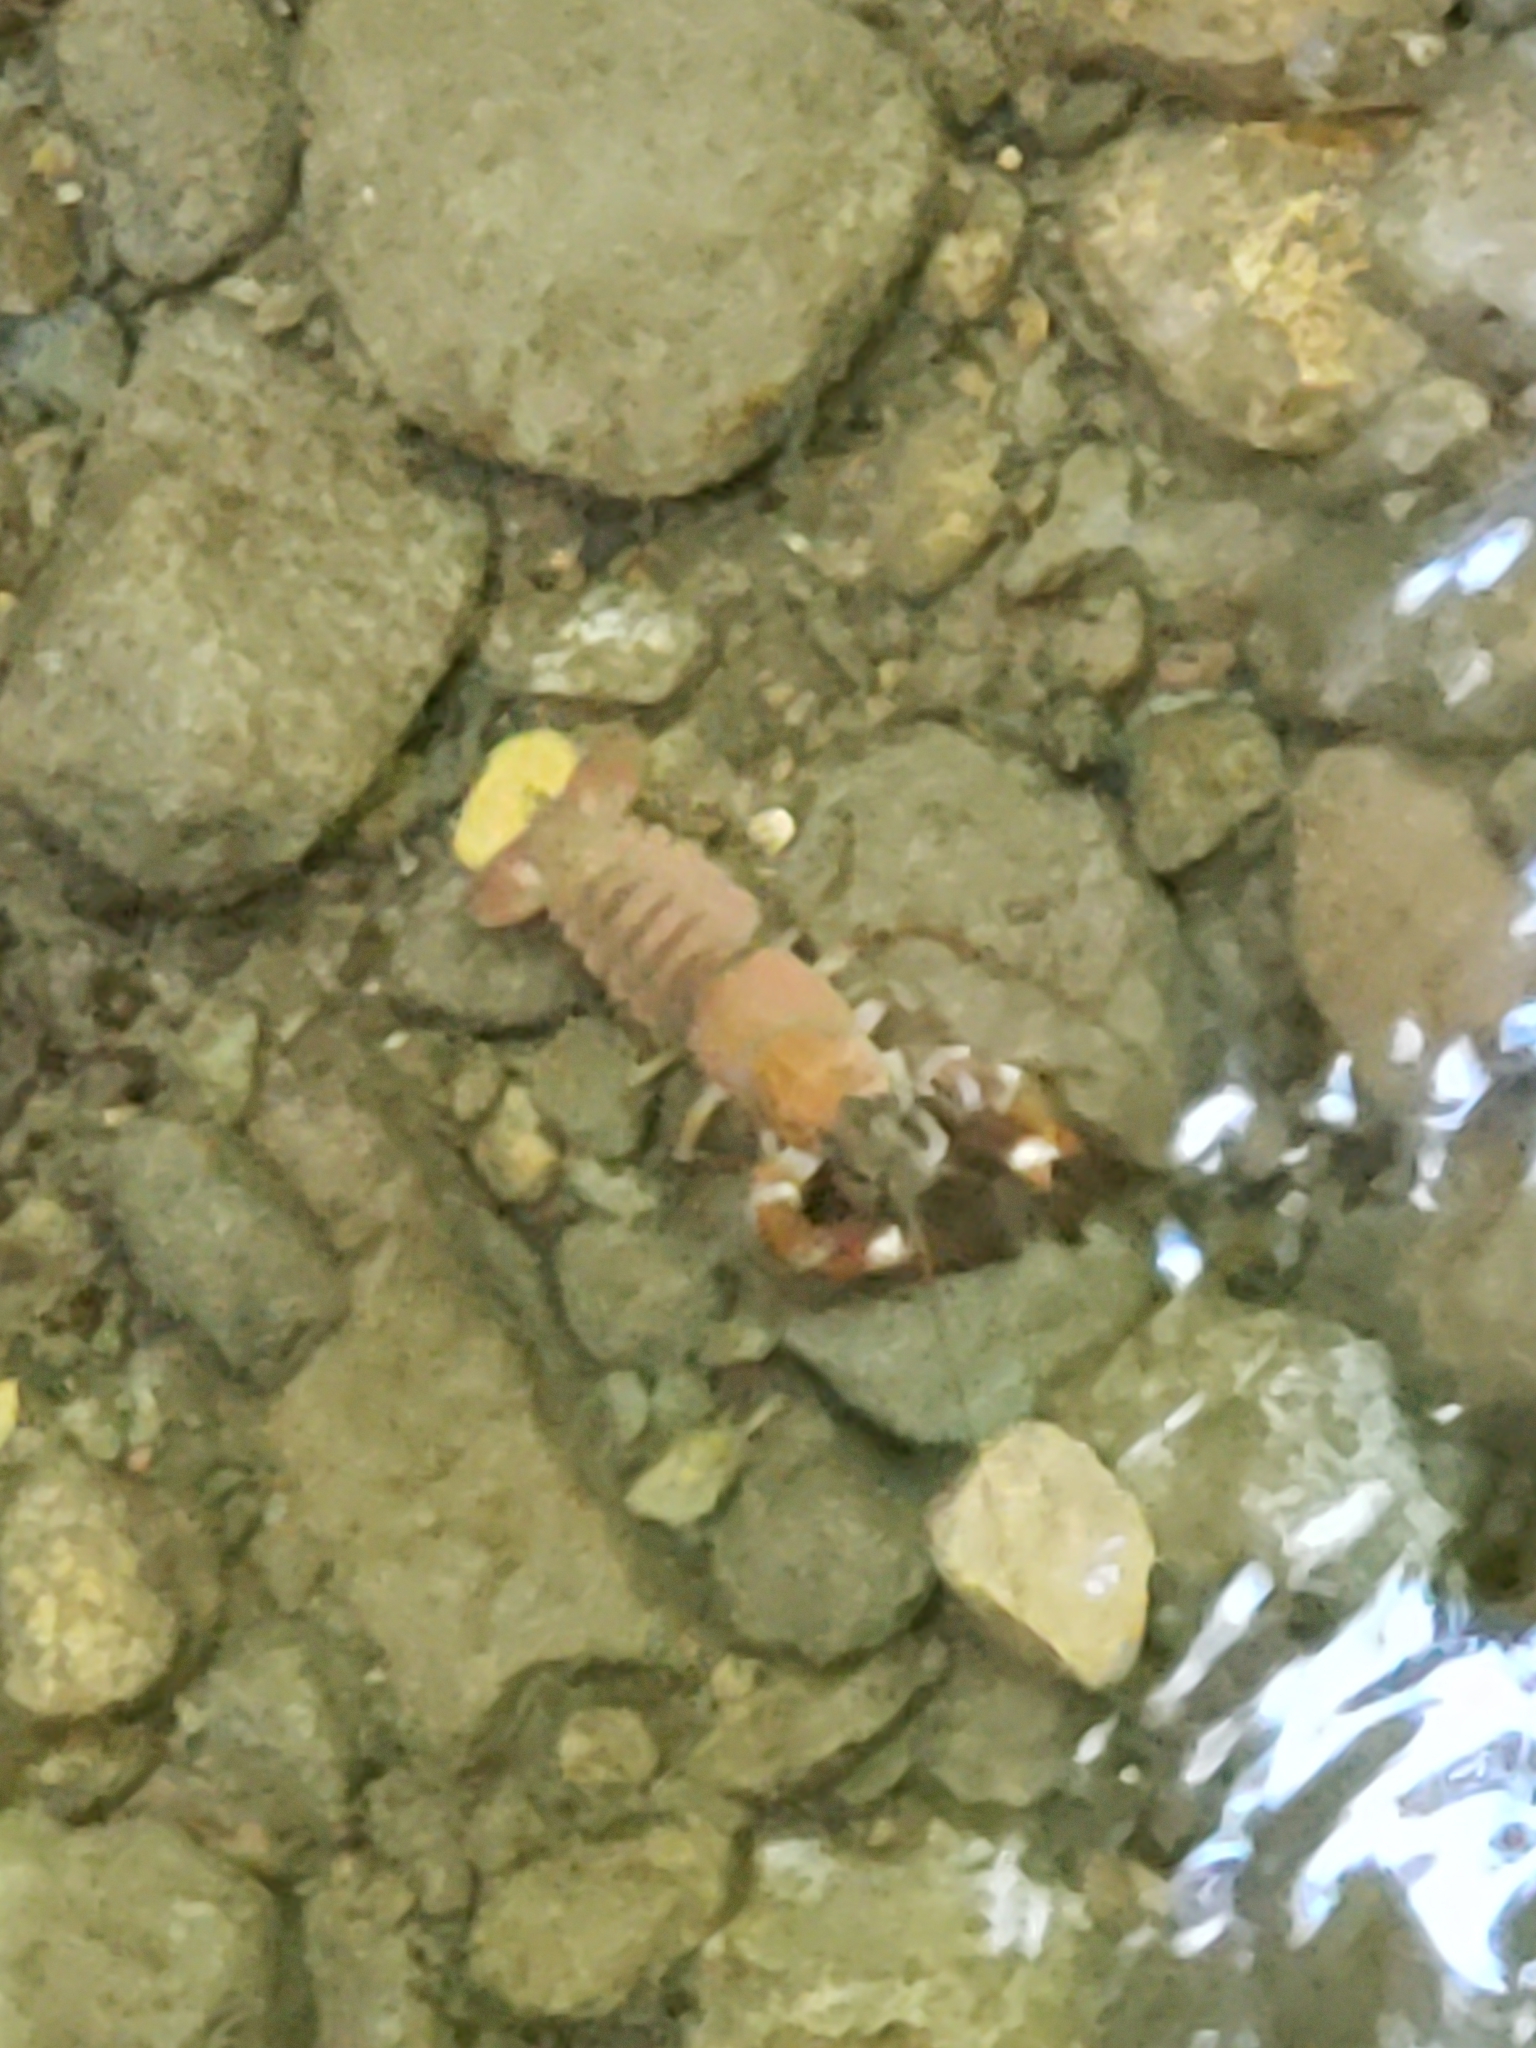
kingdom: Animalia
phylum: Arthropoda
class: Malacostraca
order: Decapoda
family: Astacidae
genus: Pacifastacus
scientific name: Pacifastacus leniusculus
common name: Signal crayfish
